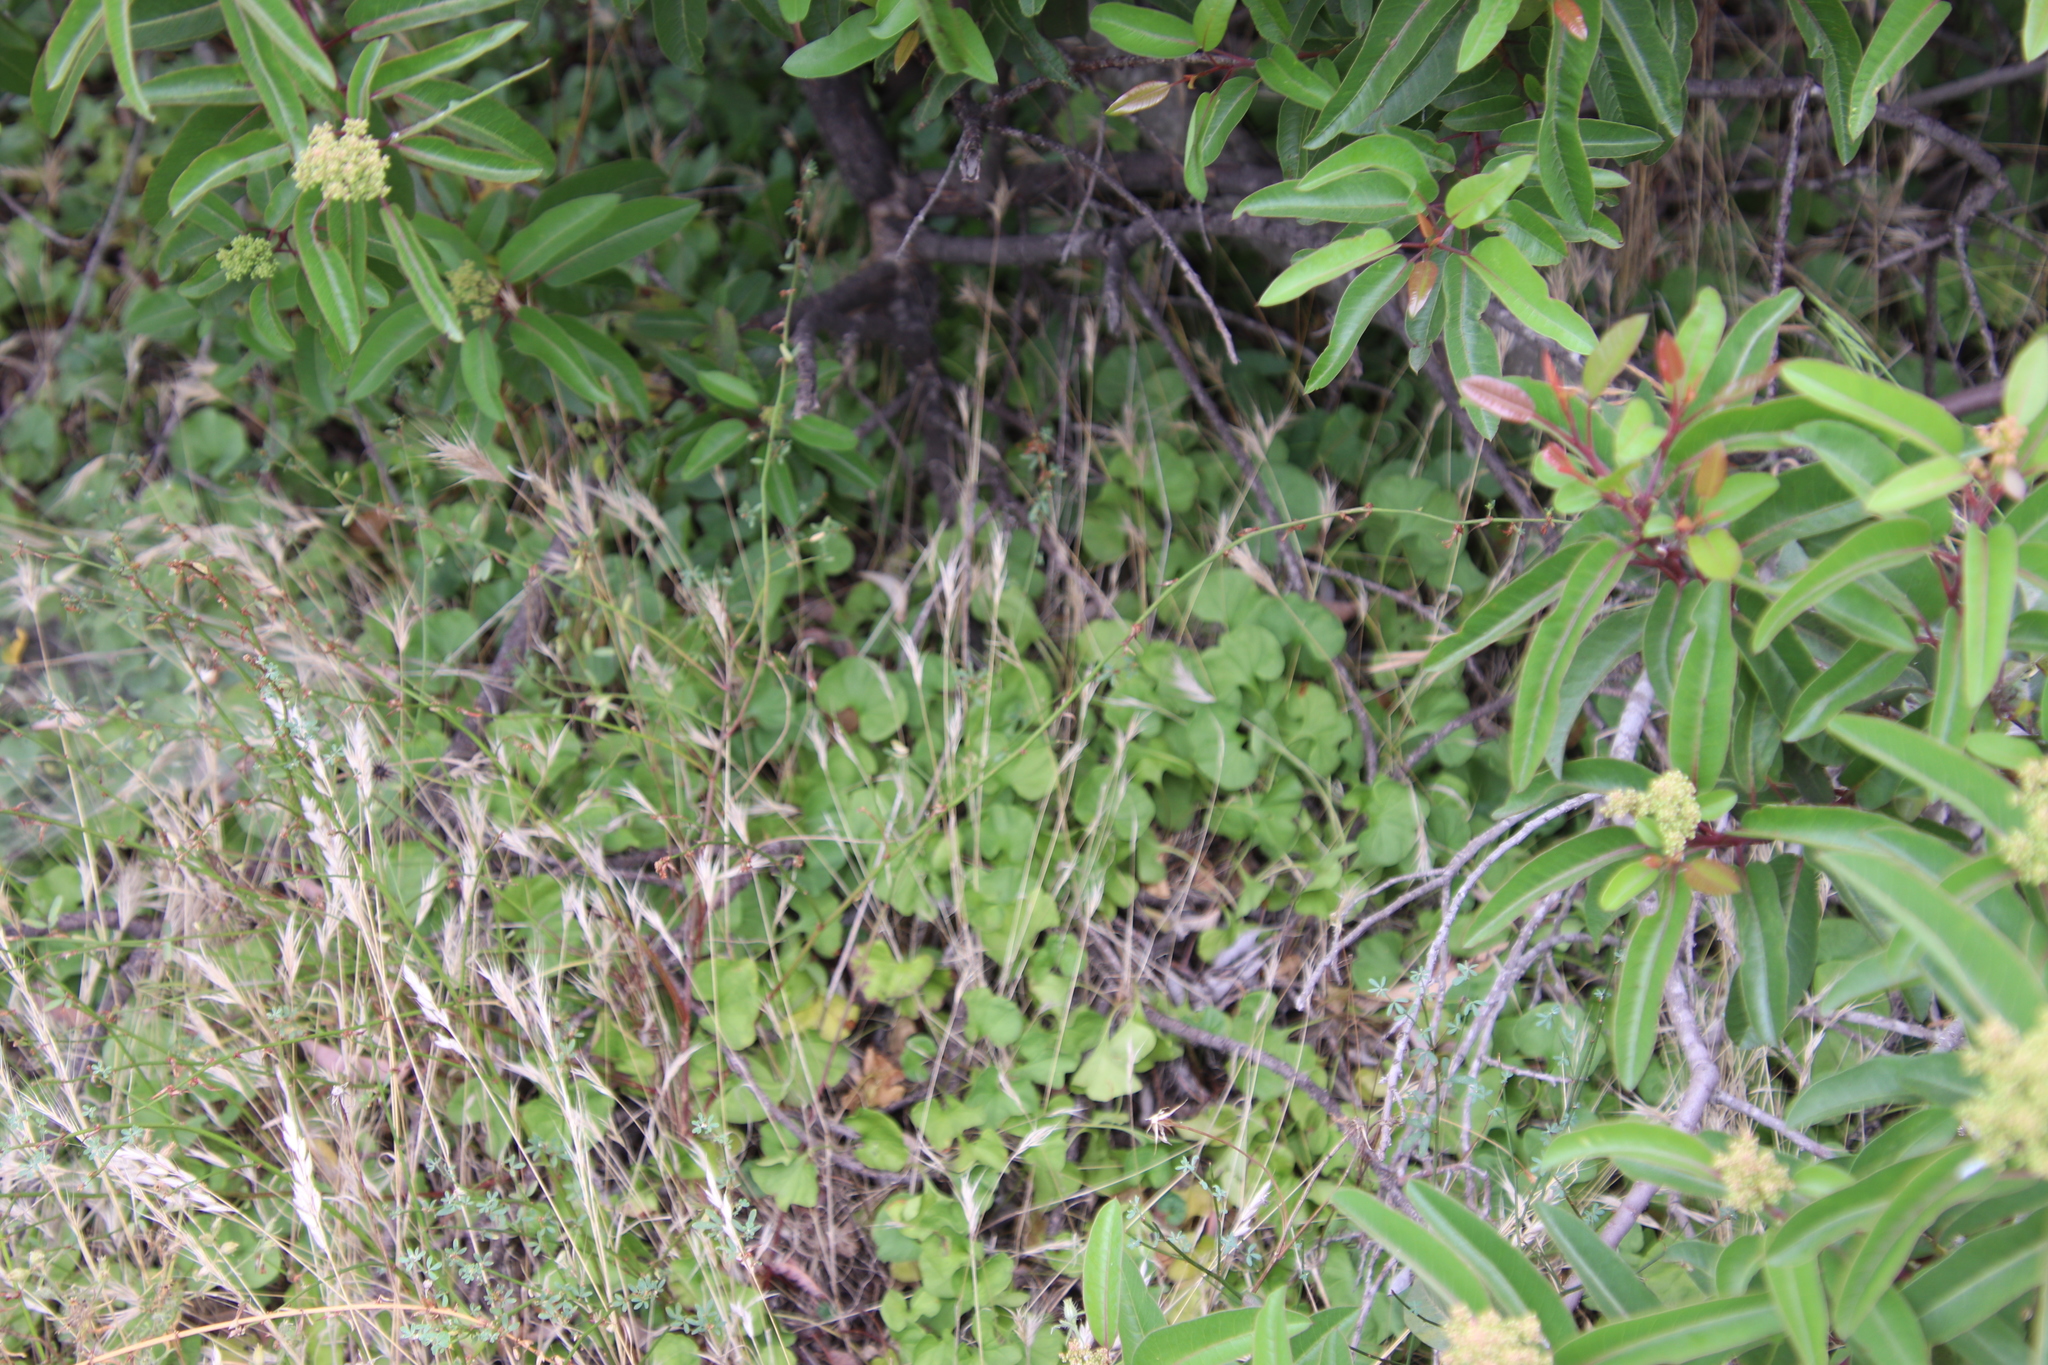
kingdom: Plantae
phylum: Tracheophyta
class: Magnoliopsida
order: Solanales
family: Convolvulaceae
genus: Dichondra
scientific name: Dichondra occidentalis
